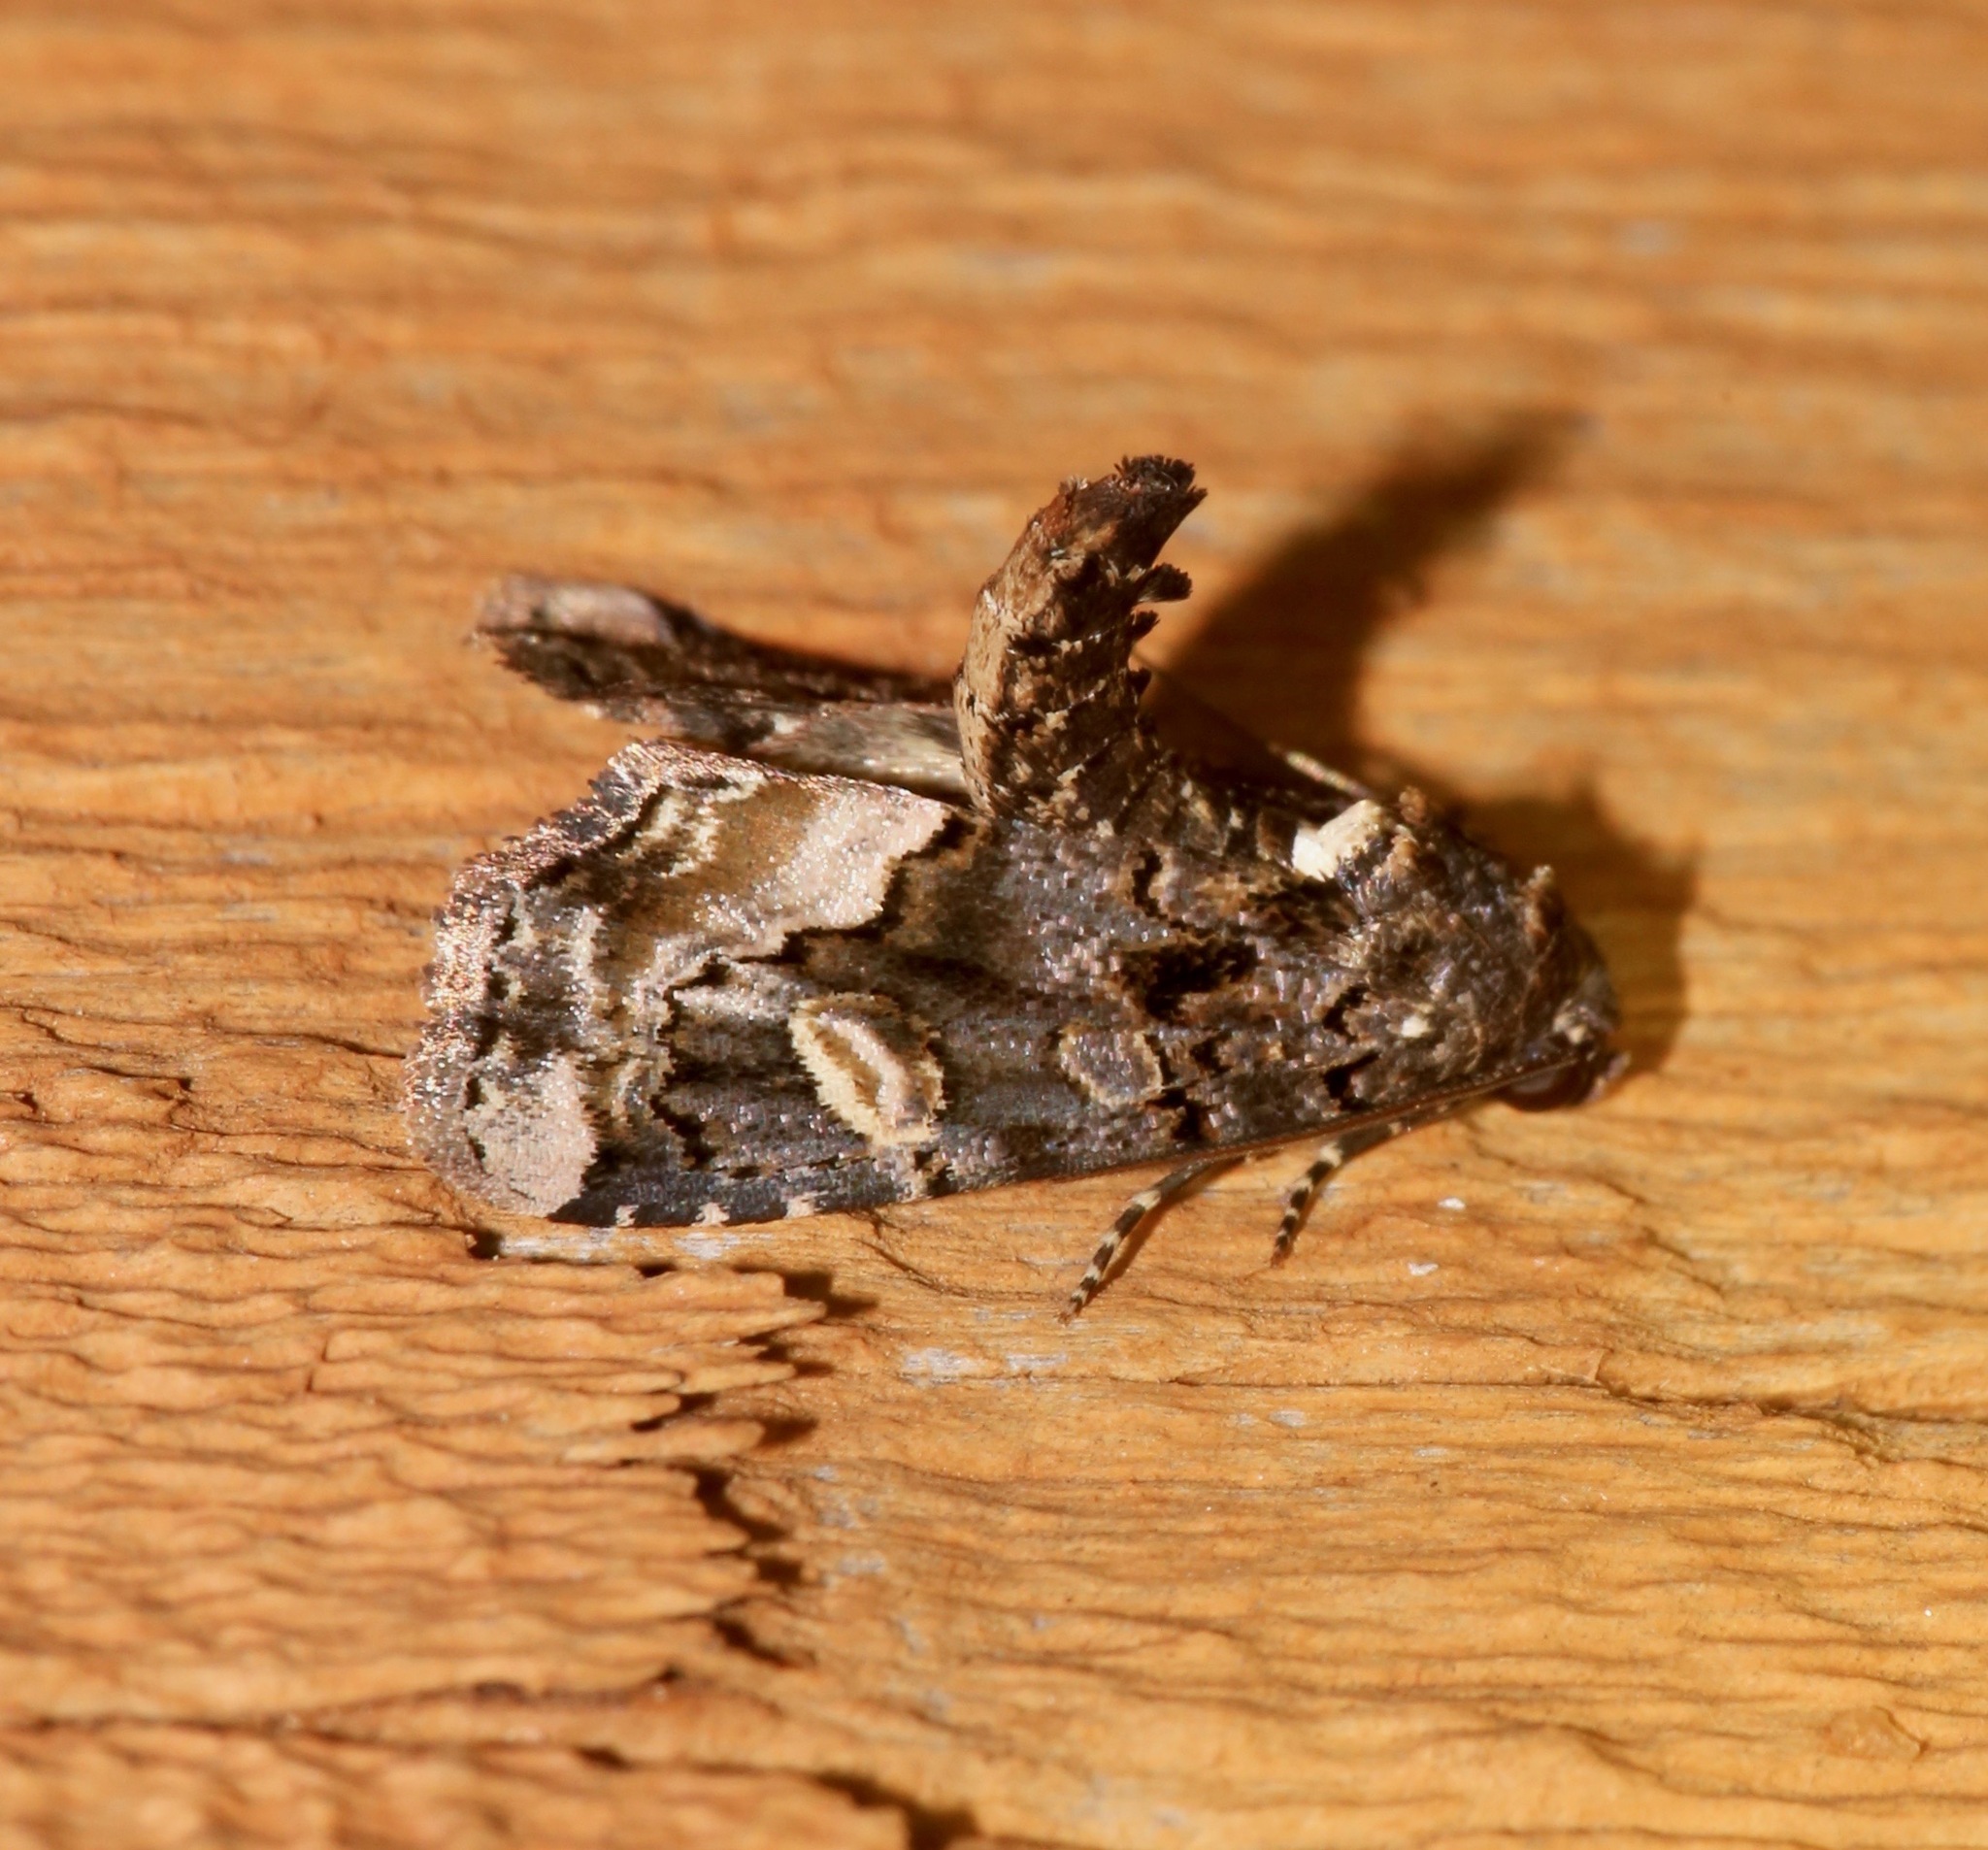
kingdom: Animalia
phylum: Arthropoda
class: Insecta
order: Lepidoptera
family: Noctuidae
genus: Homophoberia
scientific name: Homophoberia apicosa
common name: Black wedge-spot
